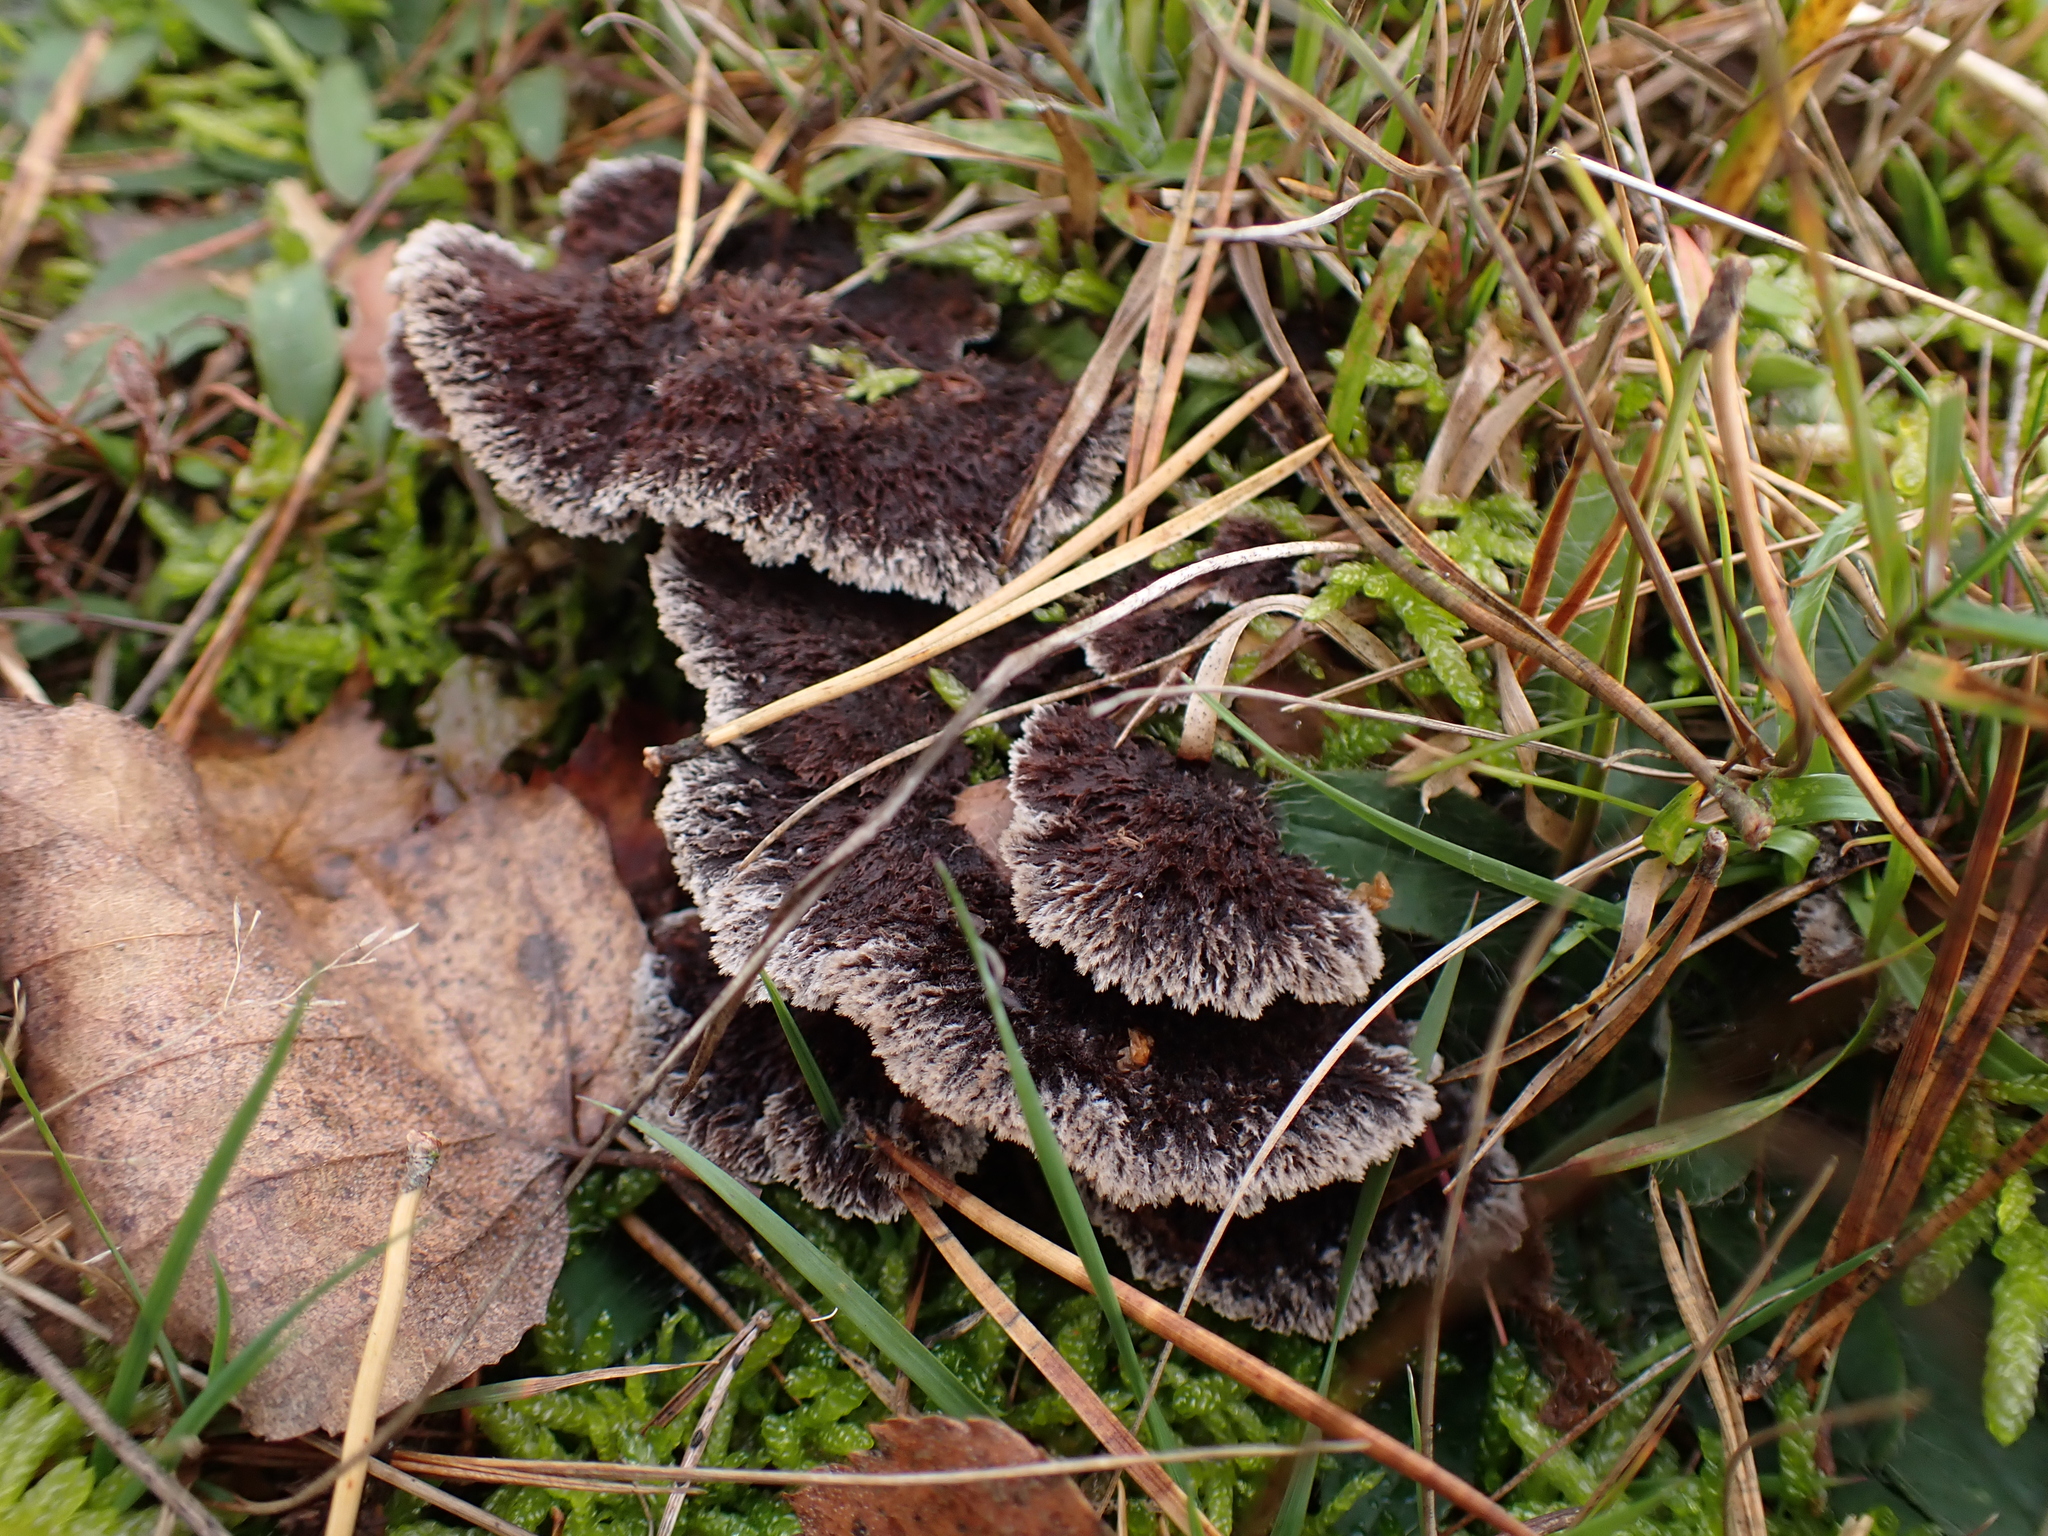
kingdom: Fungi
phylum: Basidiomycota
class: Agaricomycetes
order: Thelephorales
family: Thelephoraceae
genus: Thelephora
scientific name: Thelephora terrestris
